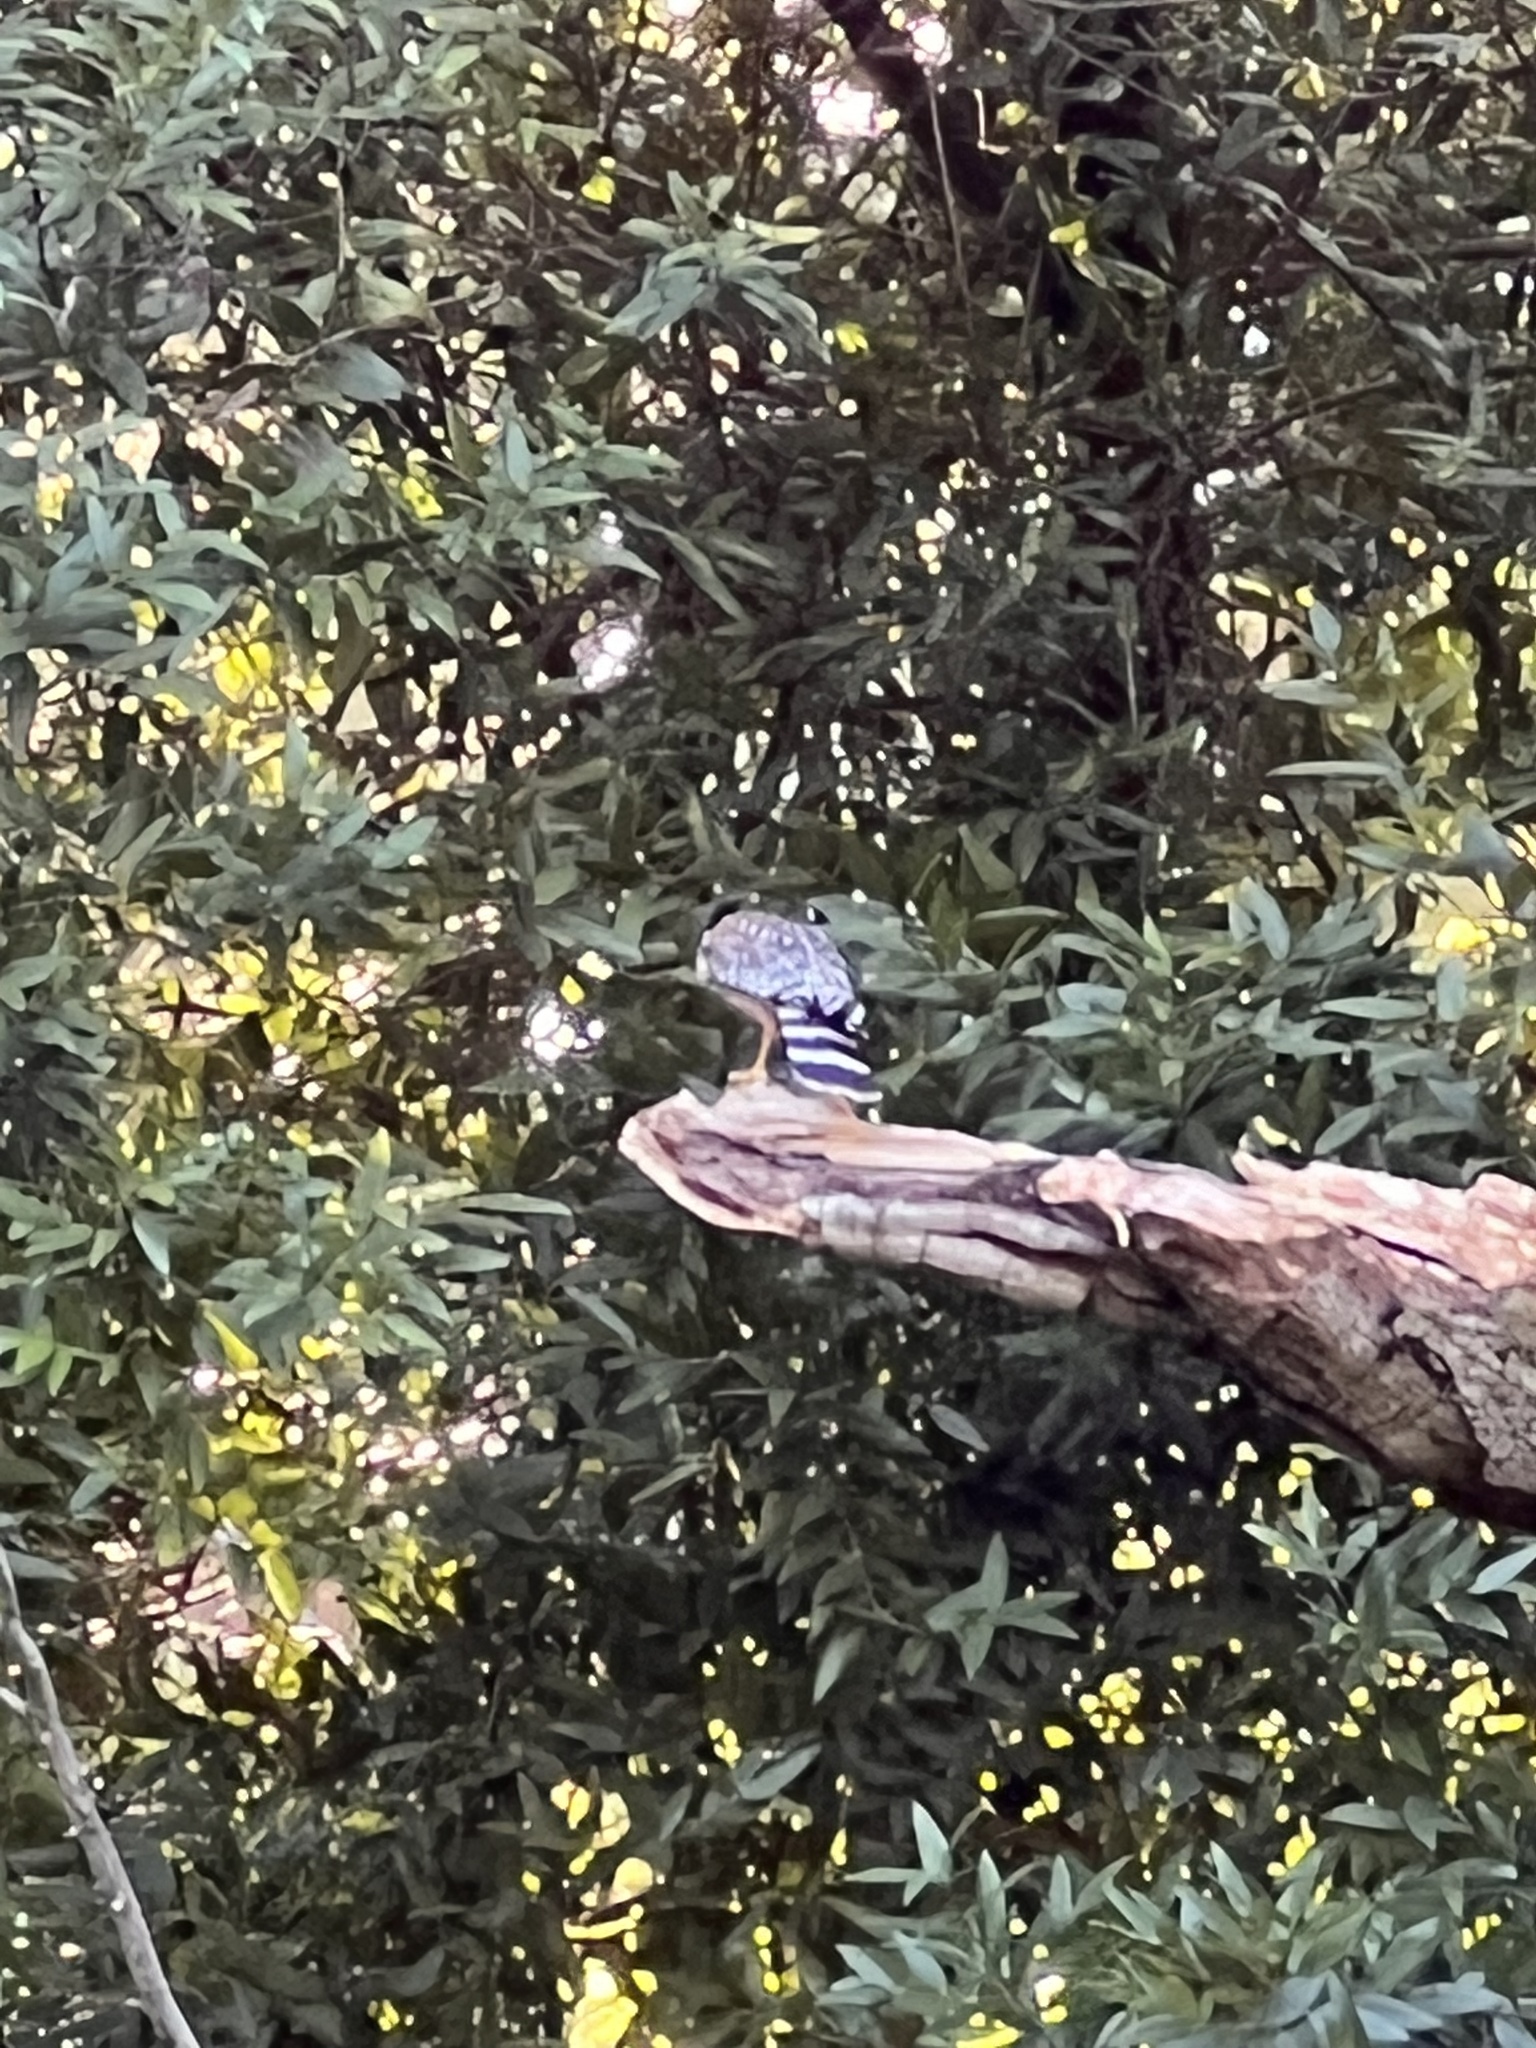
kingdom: Animalia
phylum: Chordata
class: Aves
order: Accipitriformes
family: Accipitridae
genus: Buteo
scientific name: Buteo lineatus
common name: Red-shouldered hawk
